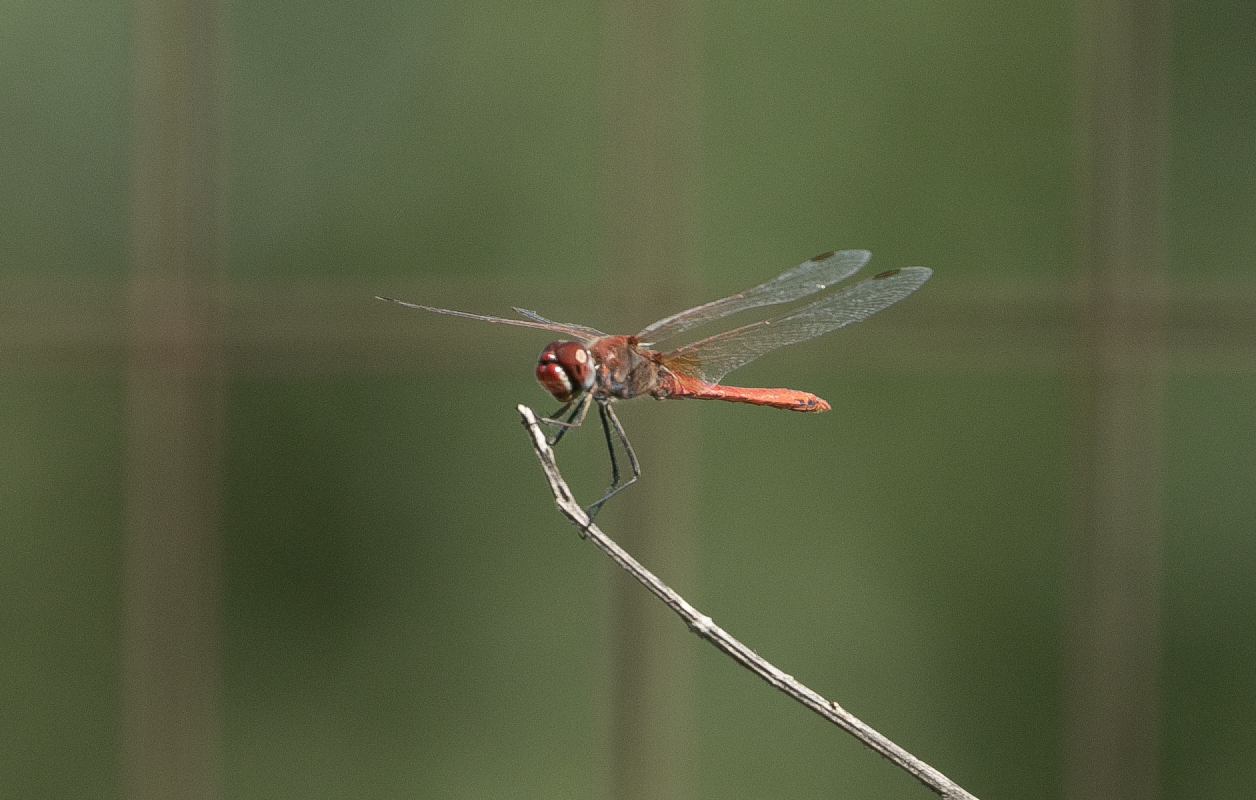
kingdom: Animalia
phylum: Arthropoda
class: Insecta
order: Odonata
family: Libellulidae
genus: Sympetrum
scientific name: Sympetrum fonscolombii
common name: Red-veined darter
